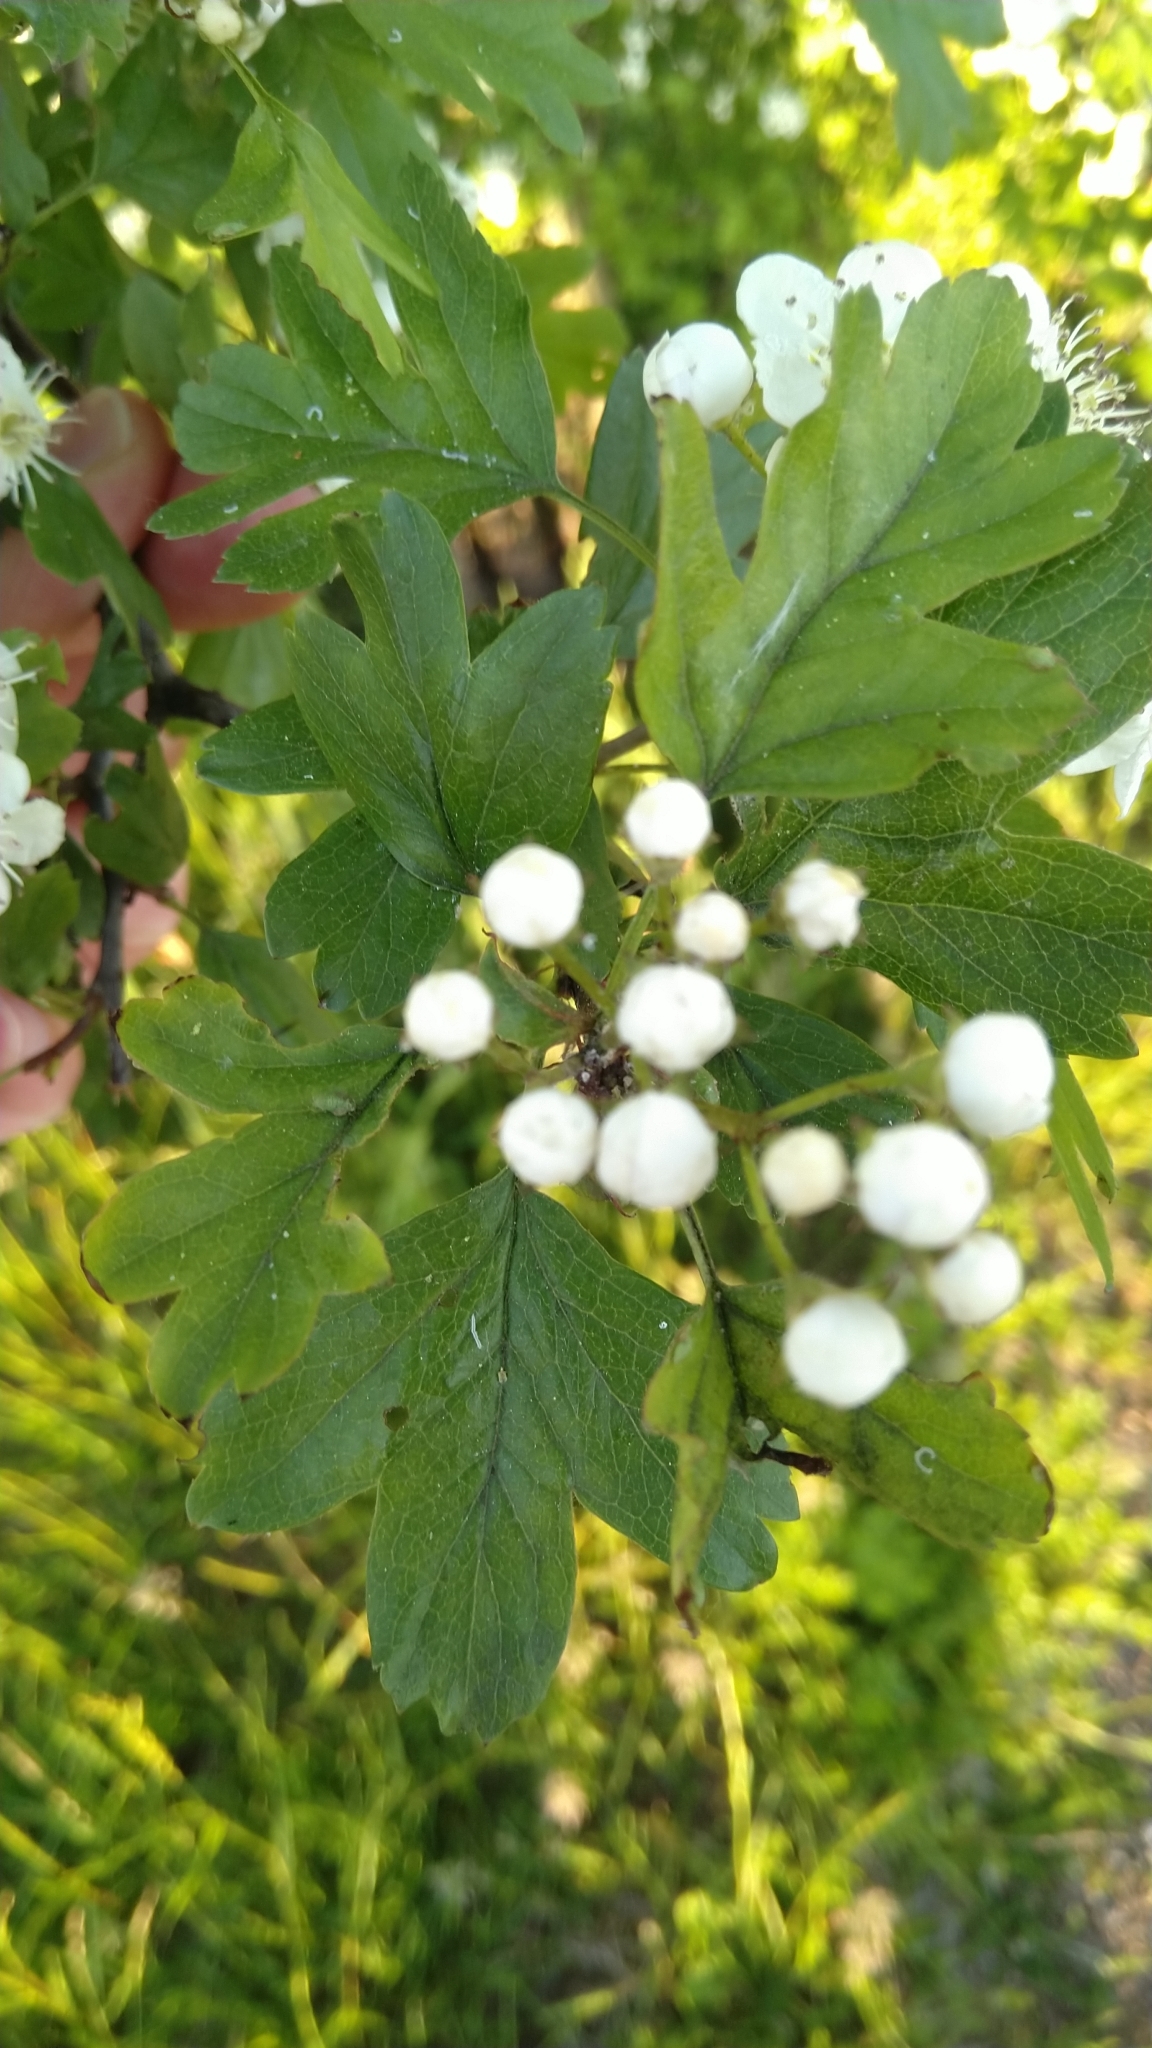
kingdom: Plantae
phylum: Tracheophyta
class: Magnoliopsida
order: Rosales
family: Rosaceae
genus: Crataegus
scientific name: Crataegus monogyna
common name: Hawthorn
